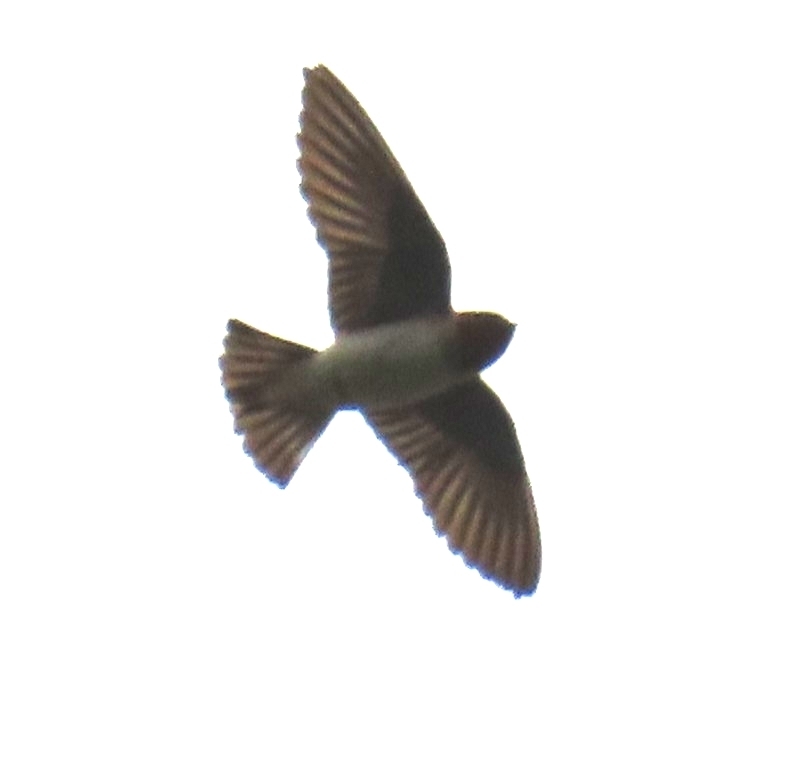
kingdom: Animalia
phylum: Chordata
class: Aves
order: Passeriformes
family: Hirundinidae
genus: Petrochelidon
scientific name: Petrochelidon pyrrhonota
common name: American cliff swallow
